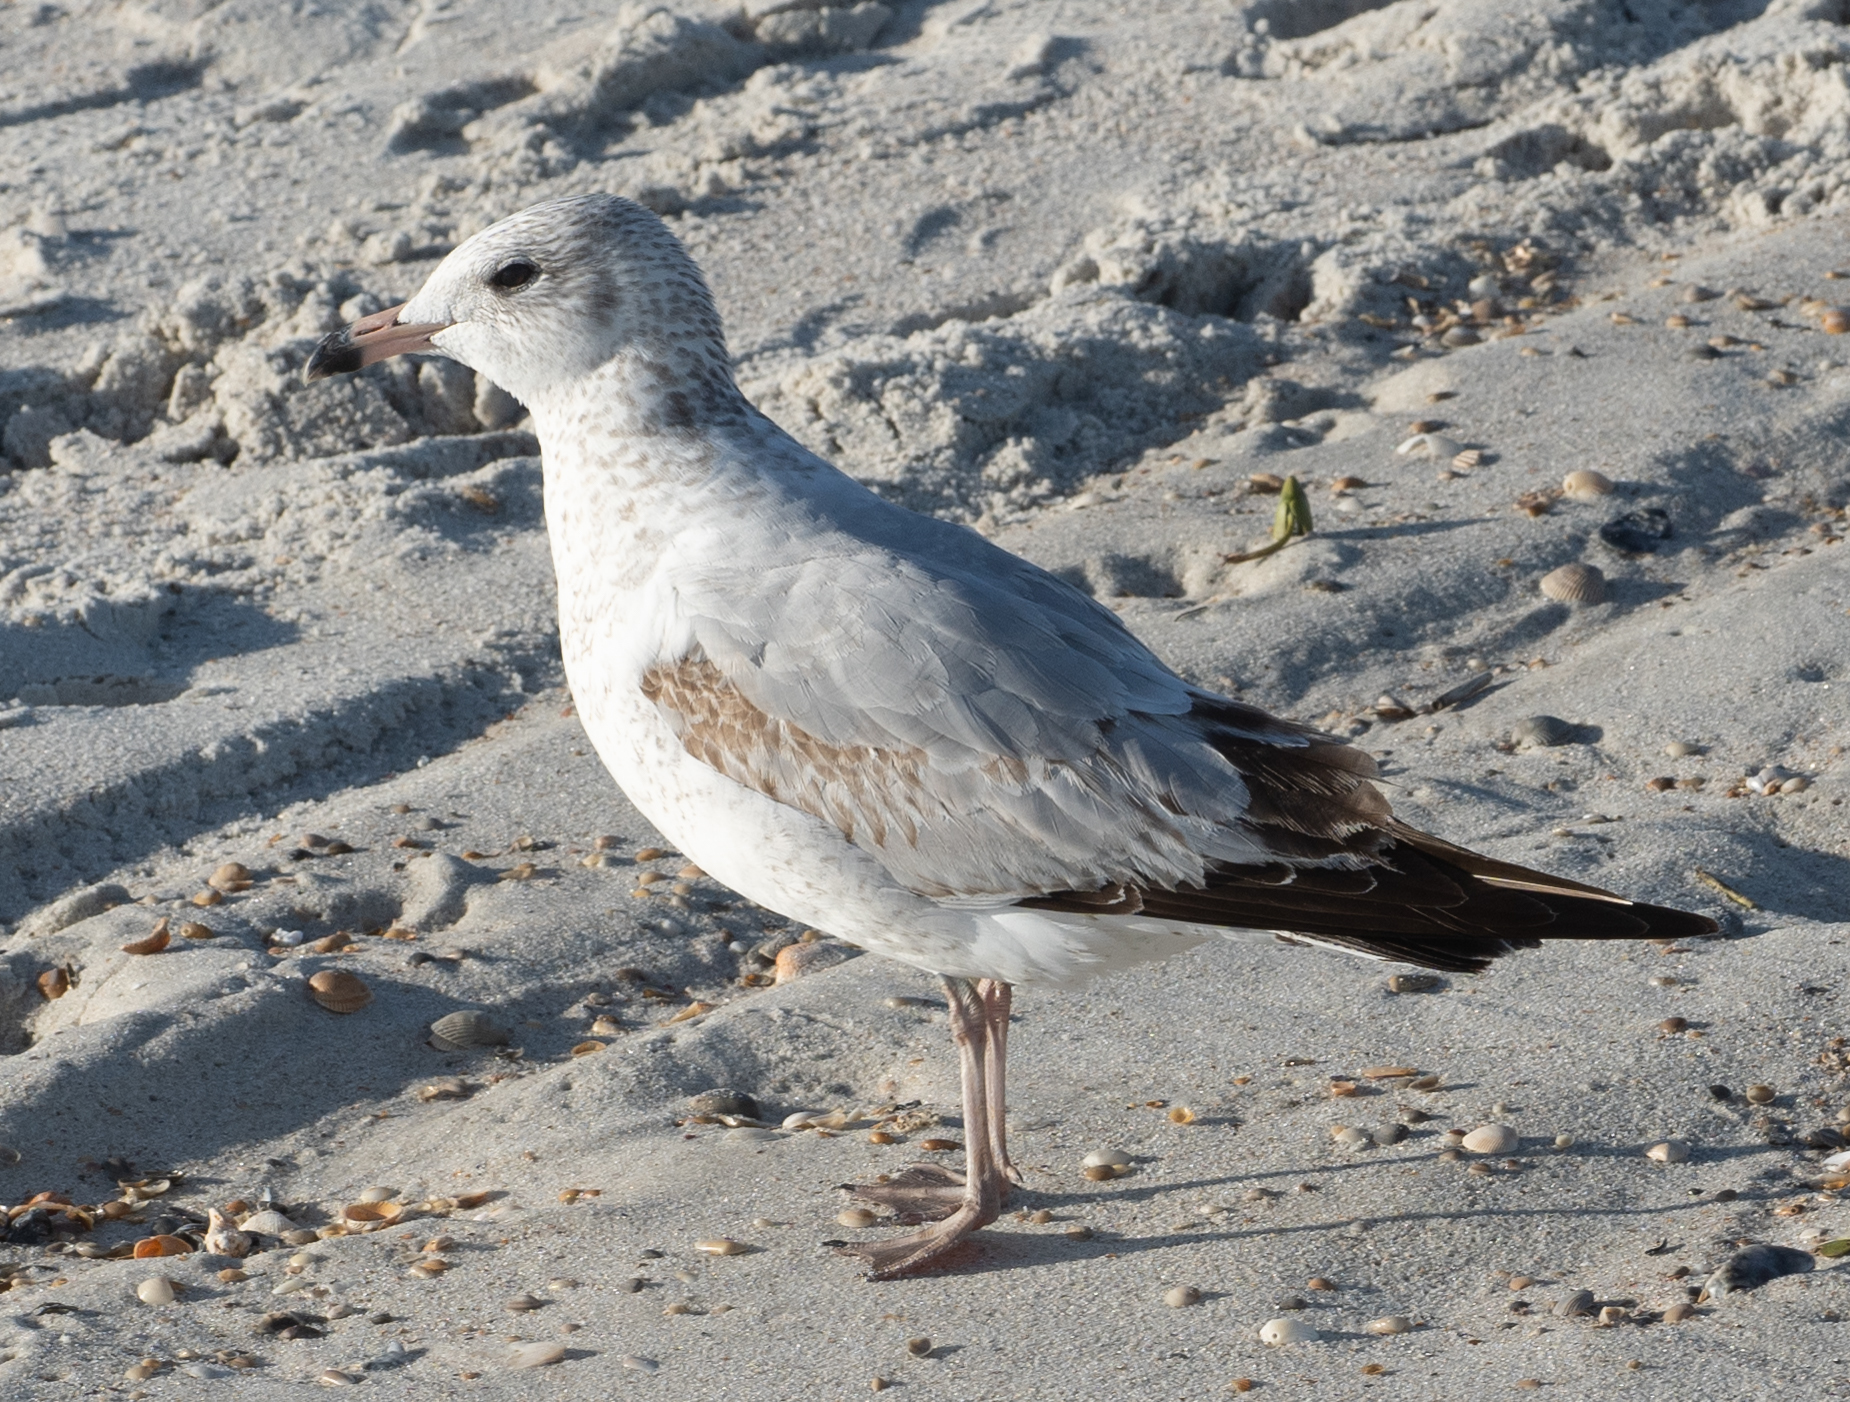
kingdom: Animalia
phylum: Chordata
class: Aves
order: Charadriiformes
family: Laridae
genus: Larus
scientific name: Larus delawarensis
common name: Ring-billed gull
